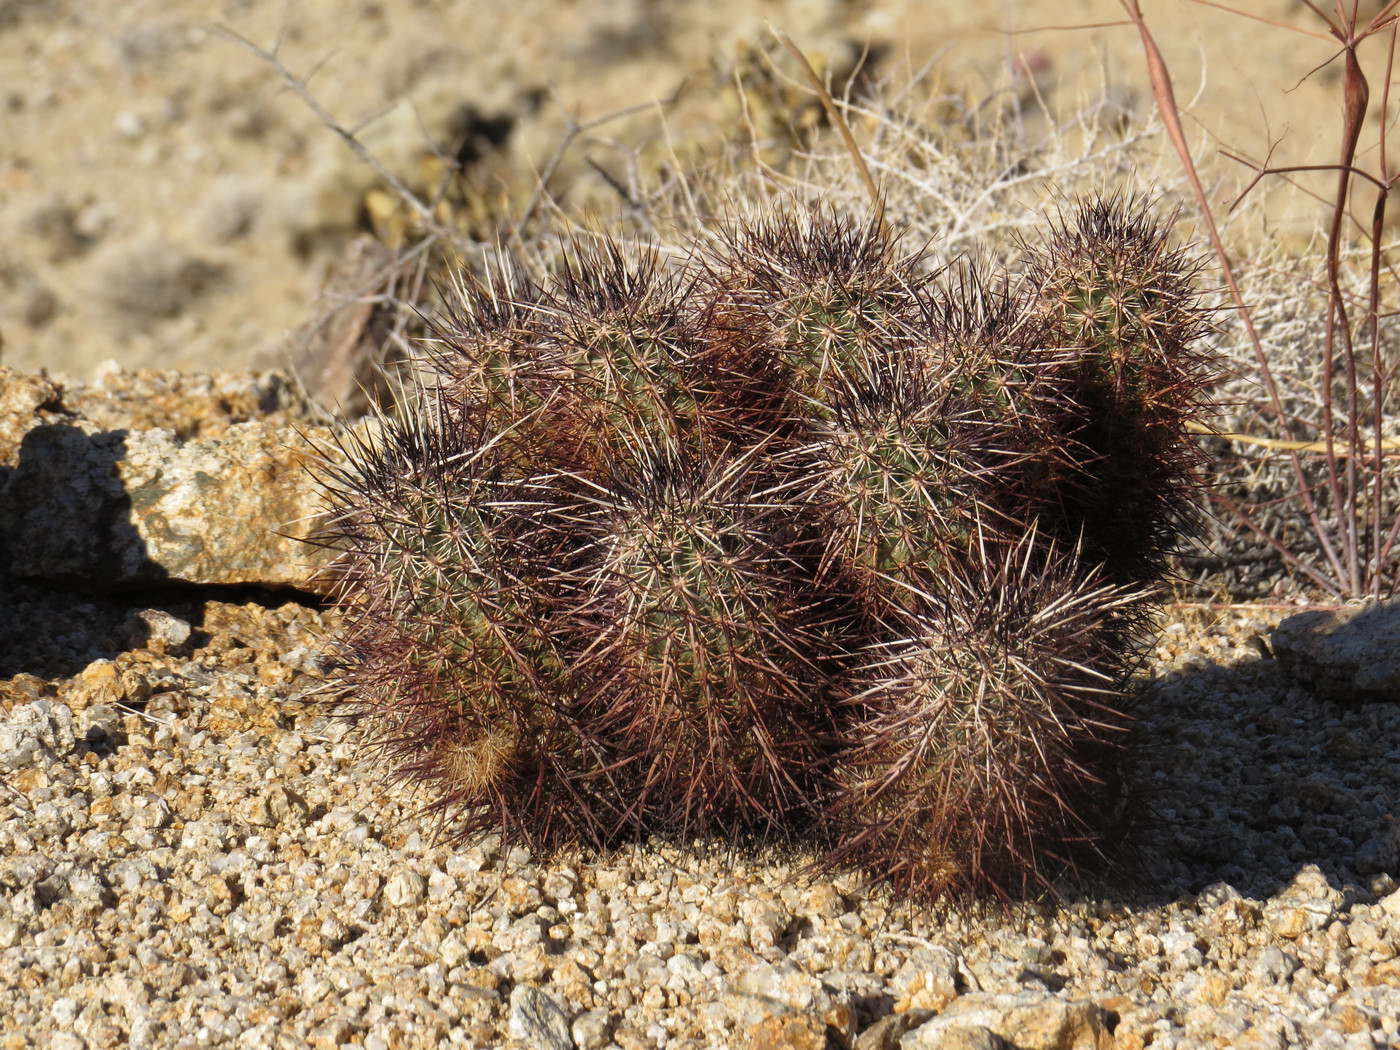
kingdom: Plantae
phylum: Tracheophyta
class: Magnoliopsida
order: Caryophyllales
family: Cactaceae
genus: Echinocereus
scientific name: Echinocereus engelmannii
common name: Engelmann's hedgehog cactus
